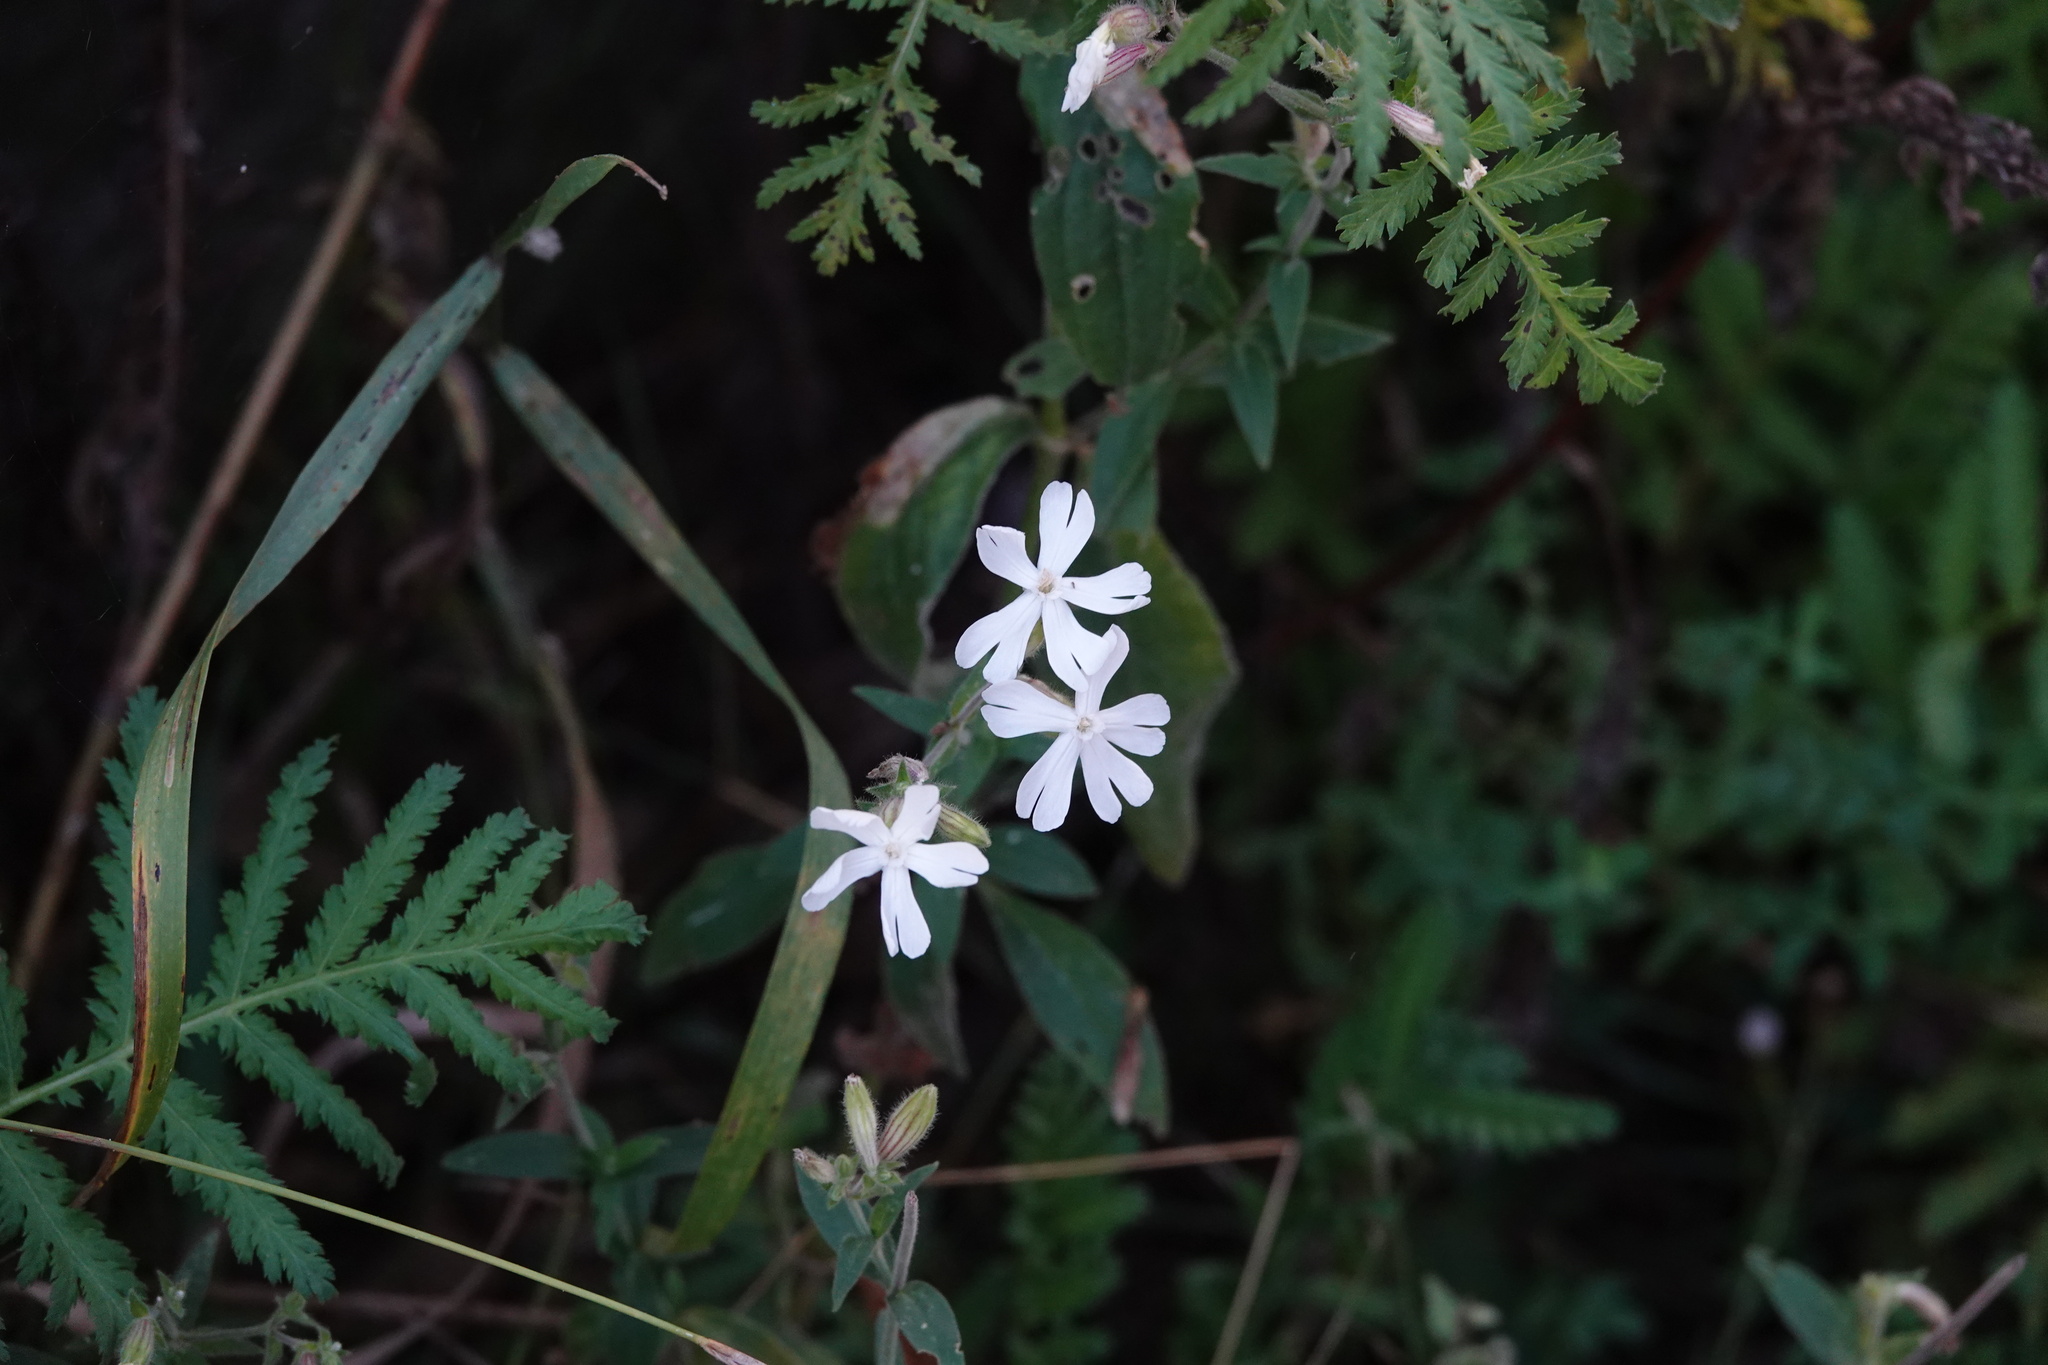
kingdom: Plantae
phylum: Tracheophyta
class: Magnoliopsida
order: Caryophyllales
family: Caryophyllaceae
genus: Silene
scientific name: Silene latifolia
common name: White campion
